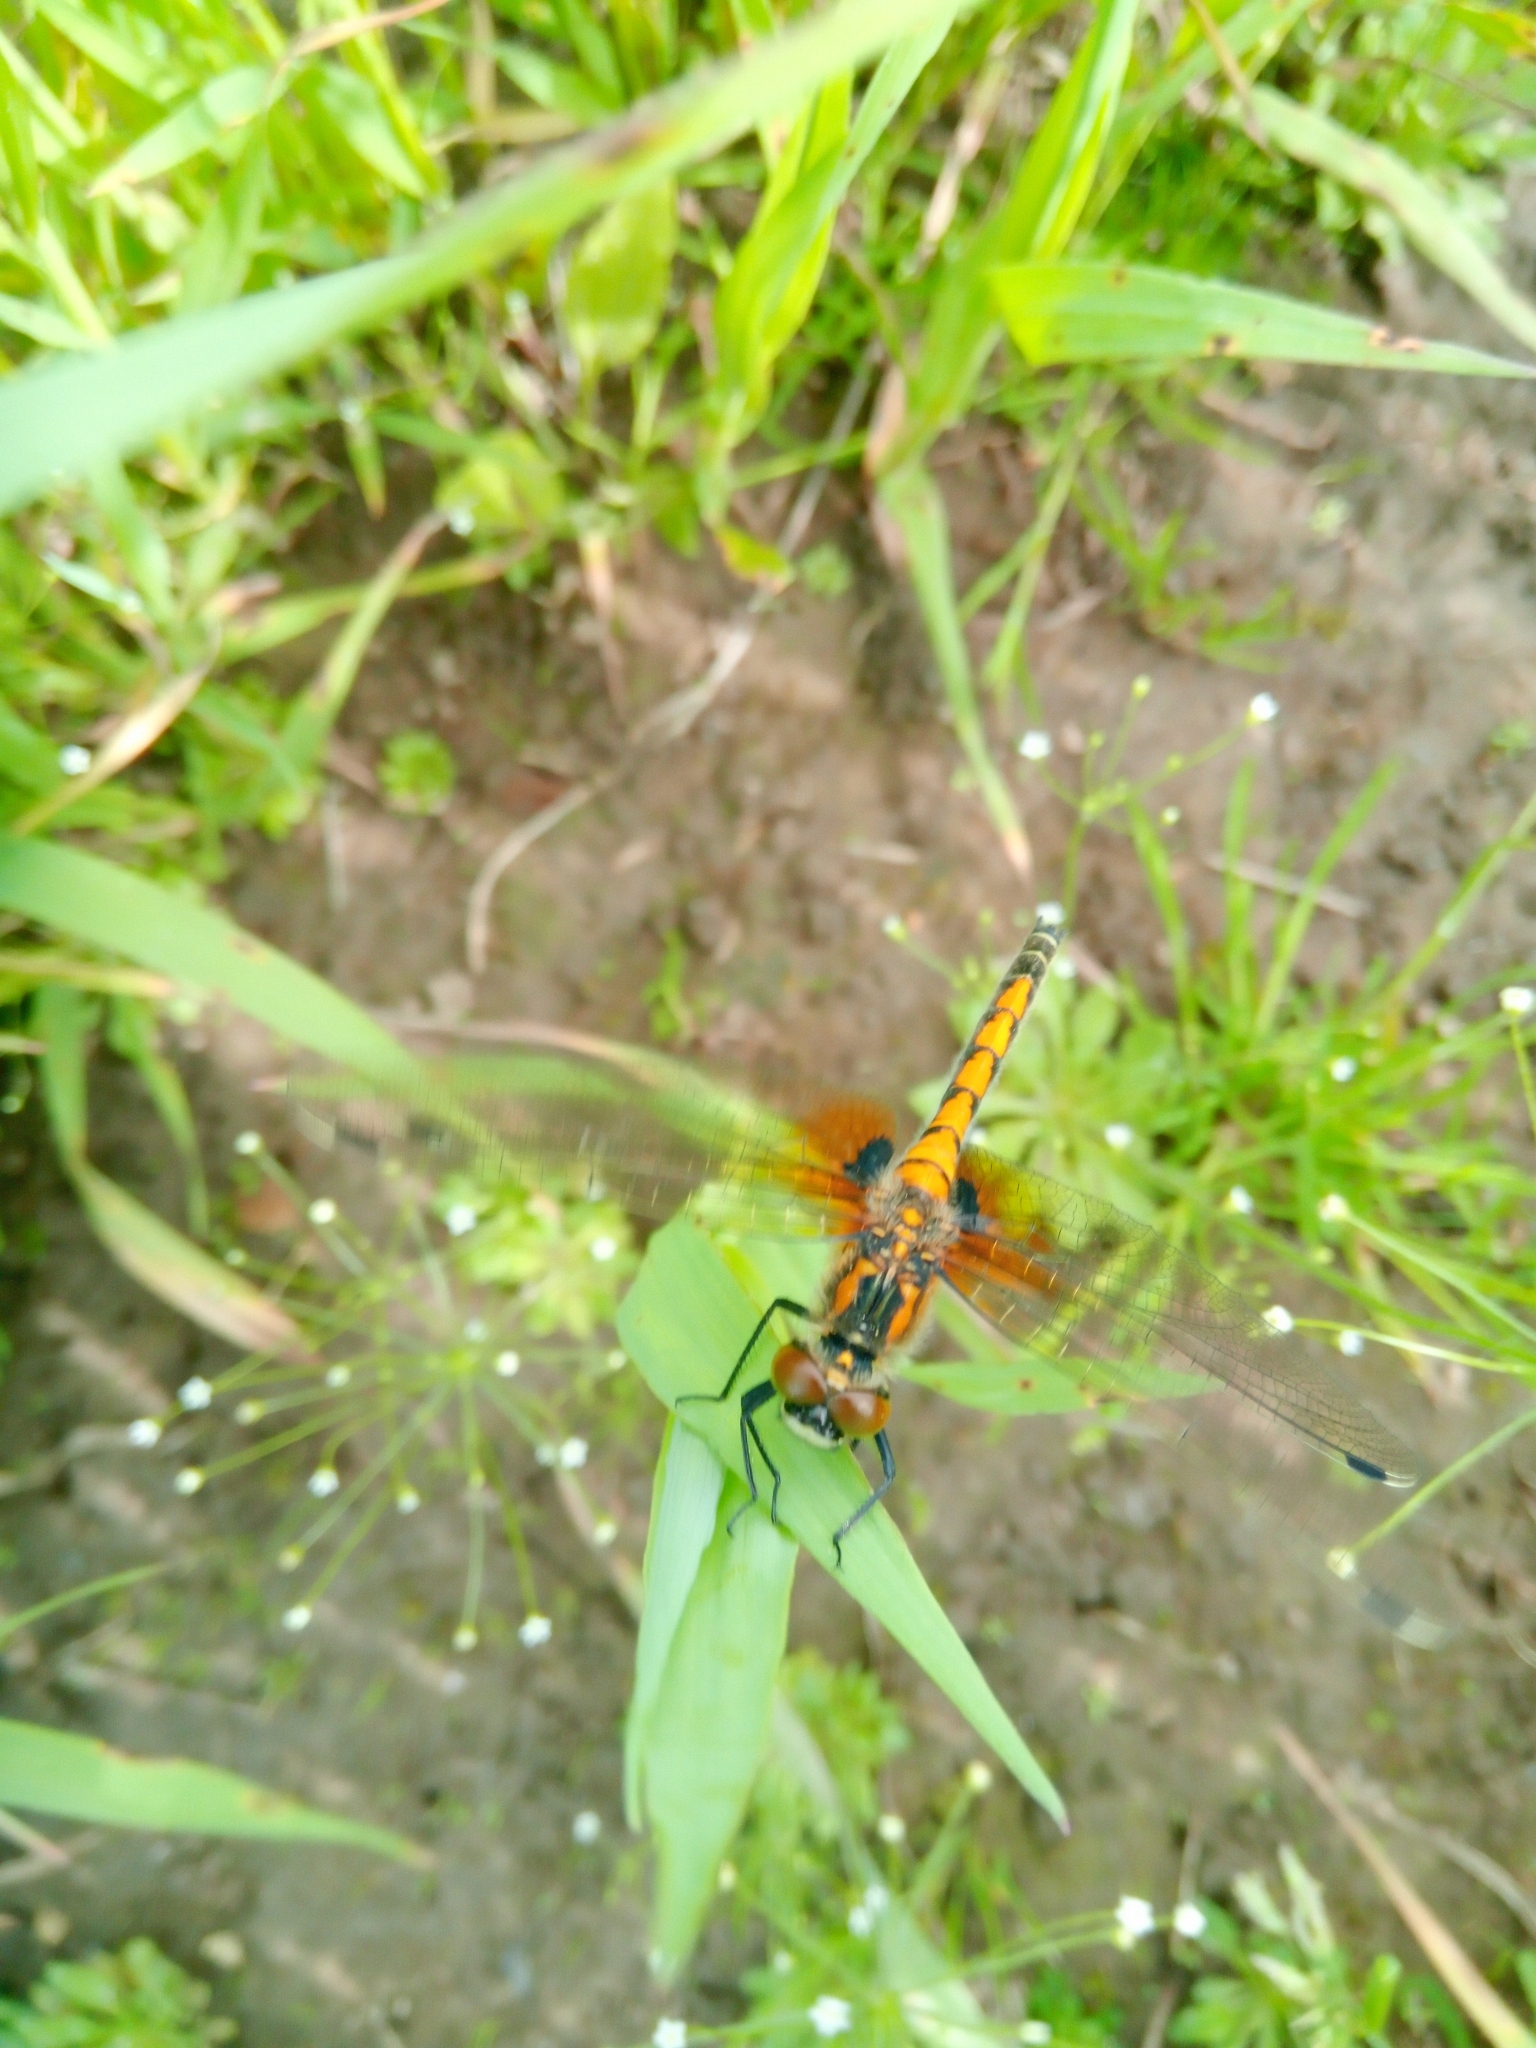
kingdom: Animalia
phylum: Arthropoda
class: Insecta
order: Odonata
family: Libellulidae
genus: Leucorrhinia
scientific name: Leucorrhinia pectoralis
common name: Yellow-spotted whiteface
